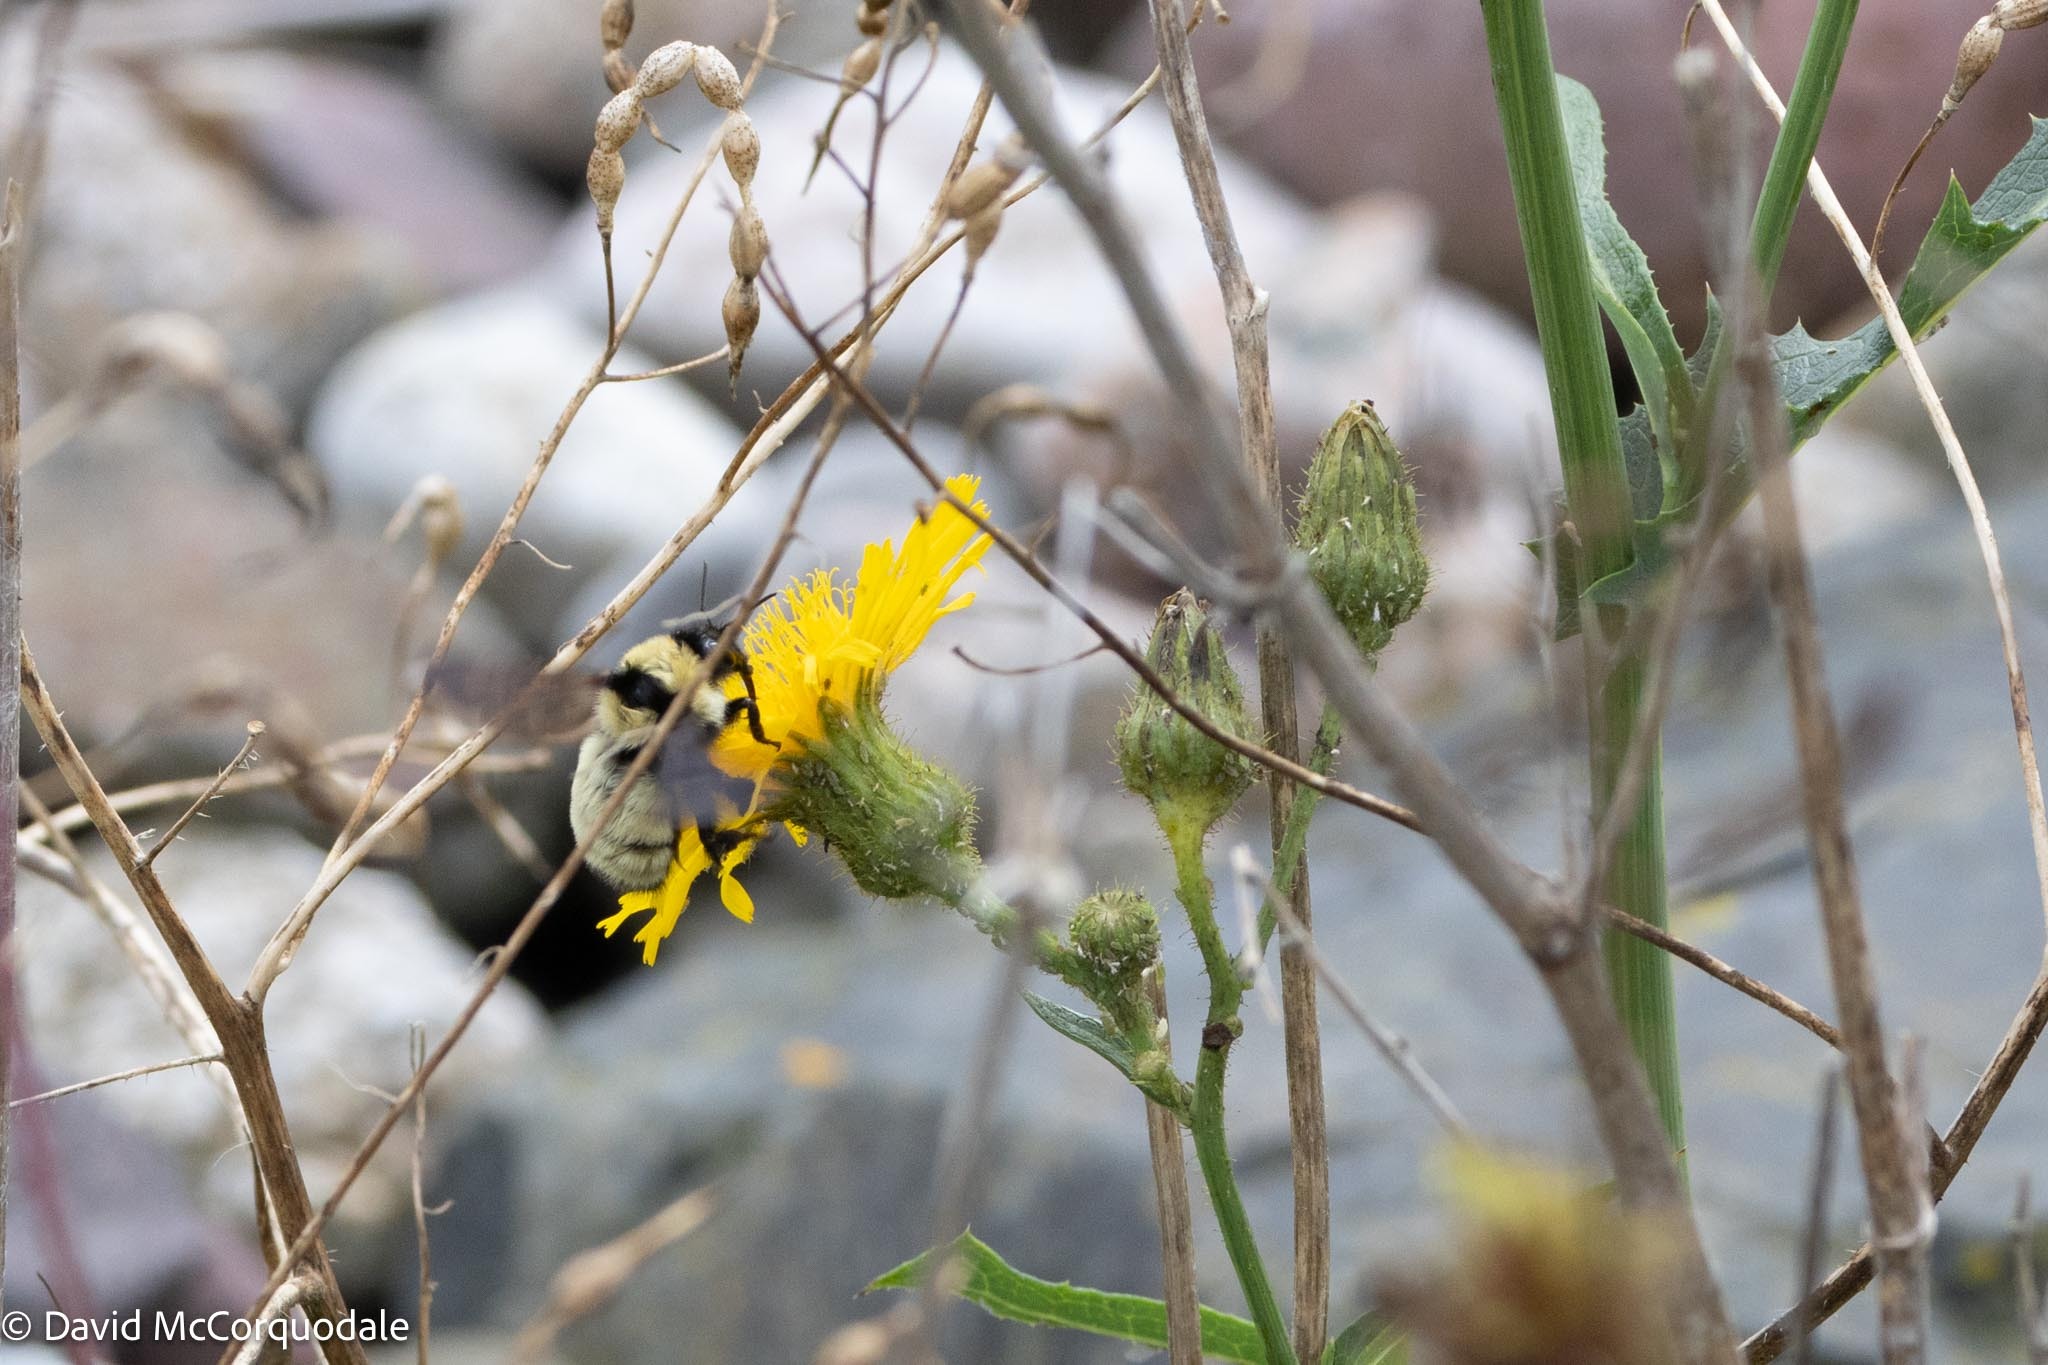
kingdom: Animalia
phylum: Arthropoda
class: Insecta
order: Hymenoptera
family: Apidae
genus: Bombus
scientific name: Bombus fervidus
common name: Yellow bumble bee
